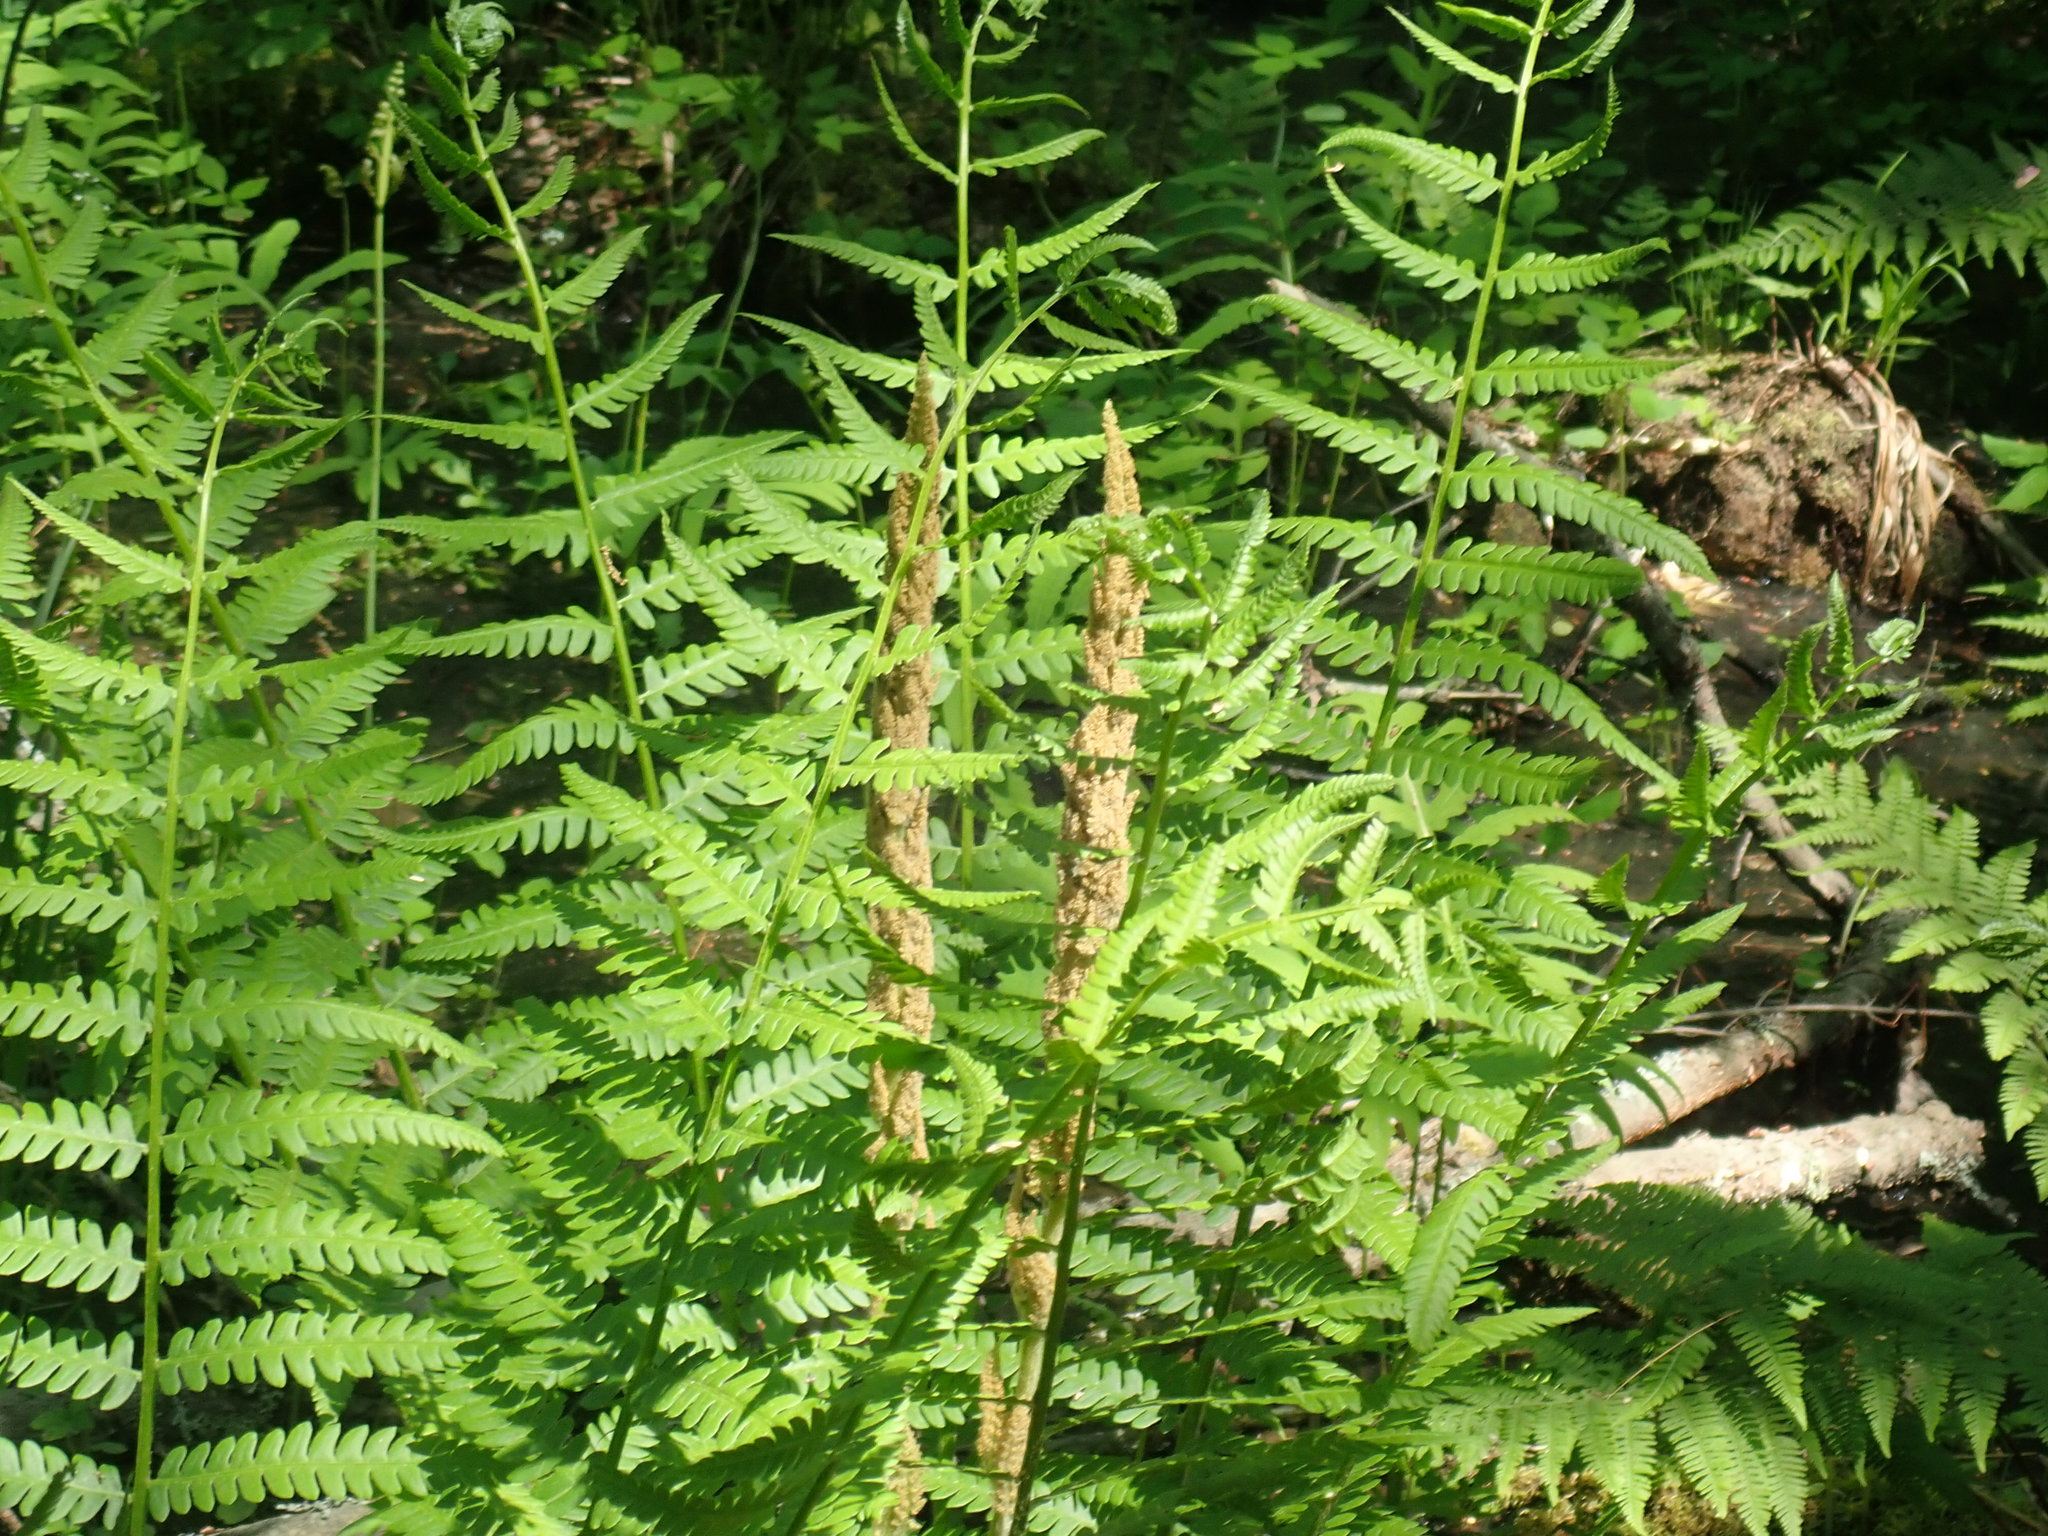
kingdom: Plantae
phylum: Tracheophyta
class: Polypodiopsida
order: Osmundales
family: Osmundaceae
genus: Osmundastrum
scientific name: Osmundastrum cinnamomeum
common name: Cinnamon fern
